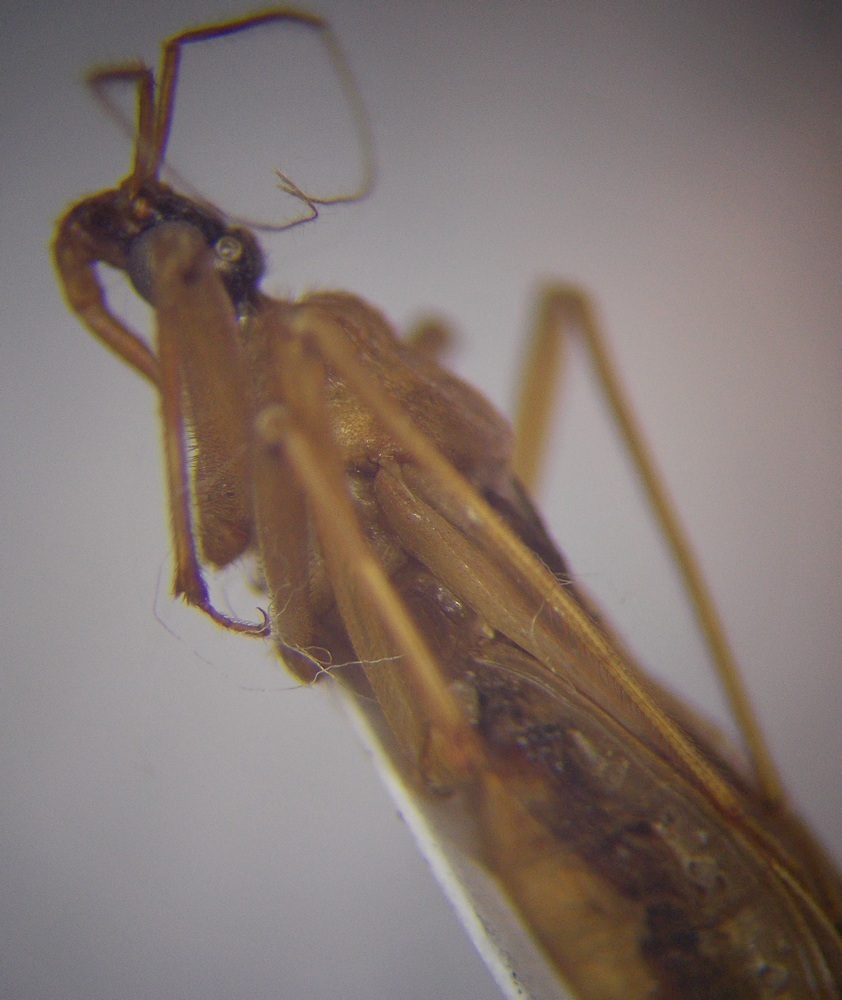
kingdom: Animalia
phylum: Arthropoda
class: Insecta
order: Hemiptera
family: Reduviidae
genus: Reduvius
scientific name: Reduvius testaceus
